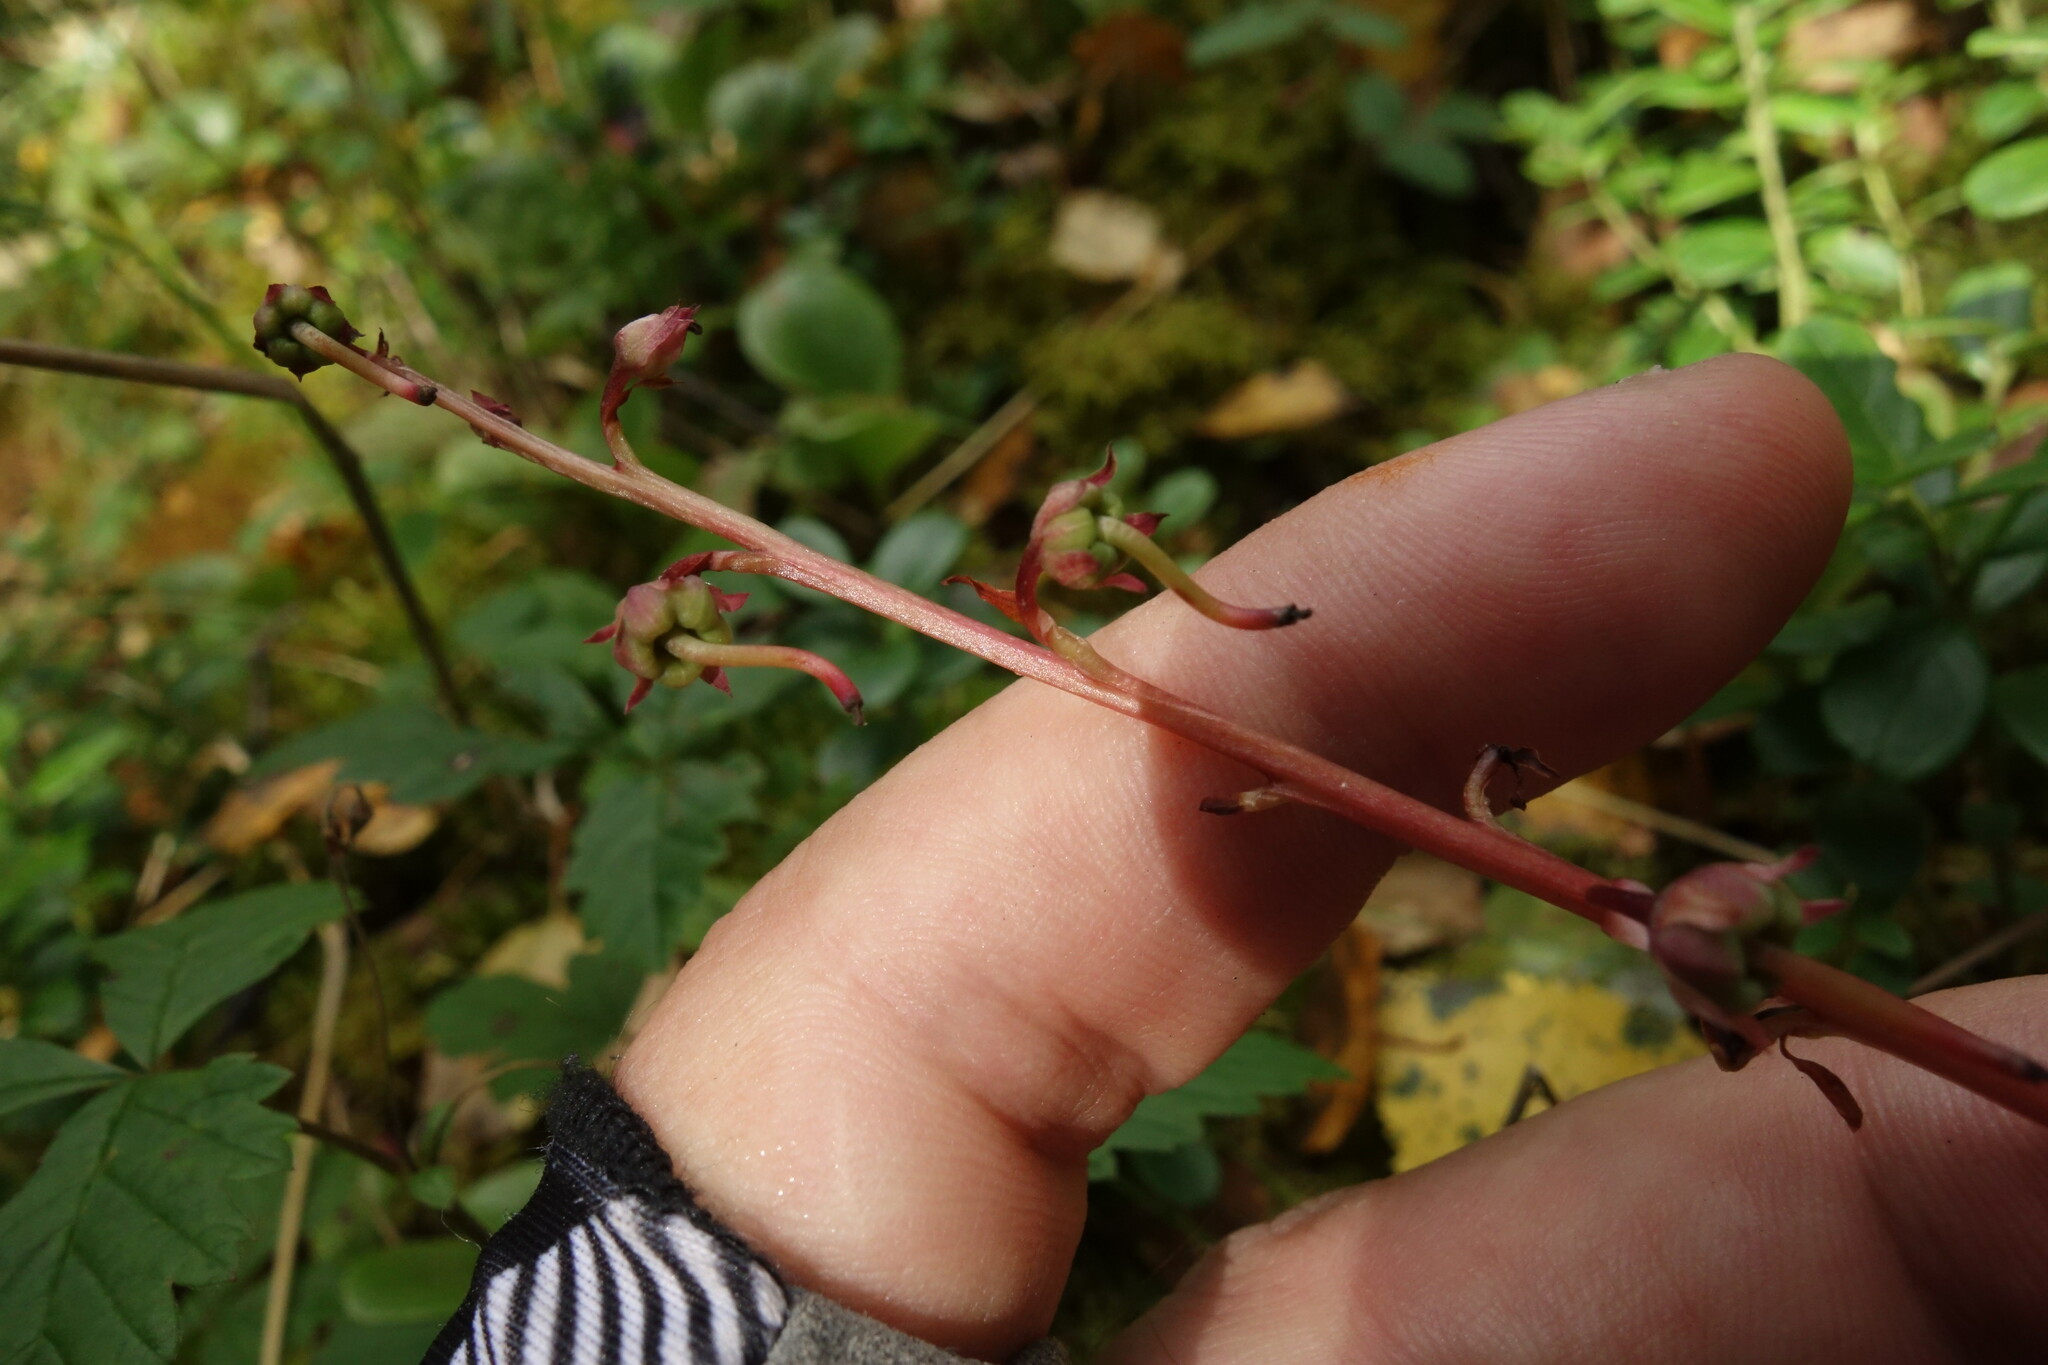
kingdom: Plantae
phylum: Tracheophyta
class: Magnoliopsida
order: Ericales
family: Ericaceae
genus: Pyrola
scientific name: Pyrola asarifolia
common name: Bog wintergreen
